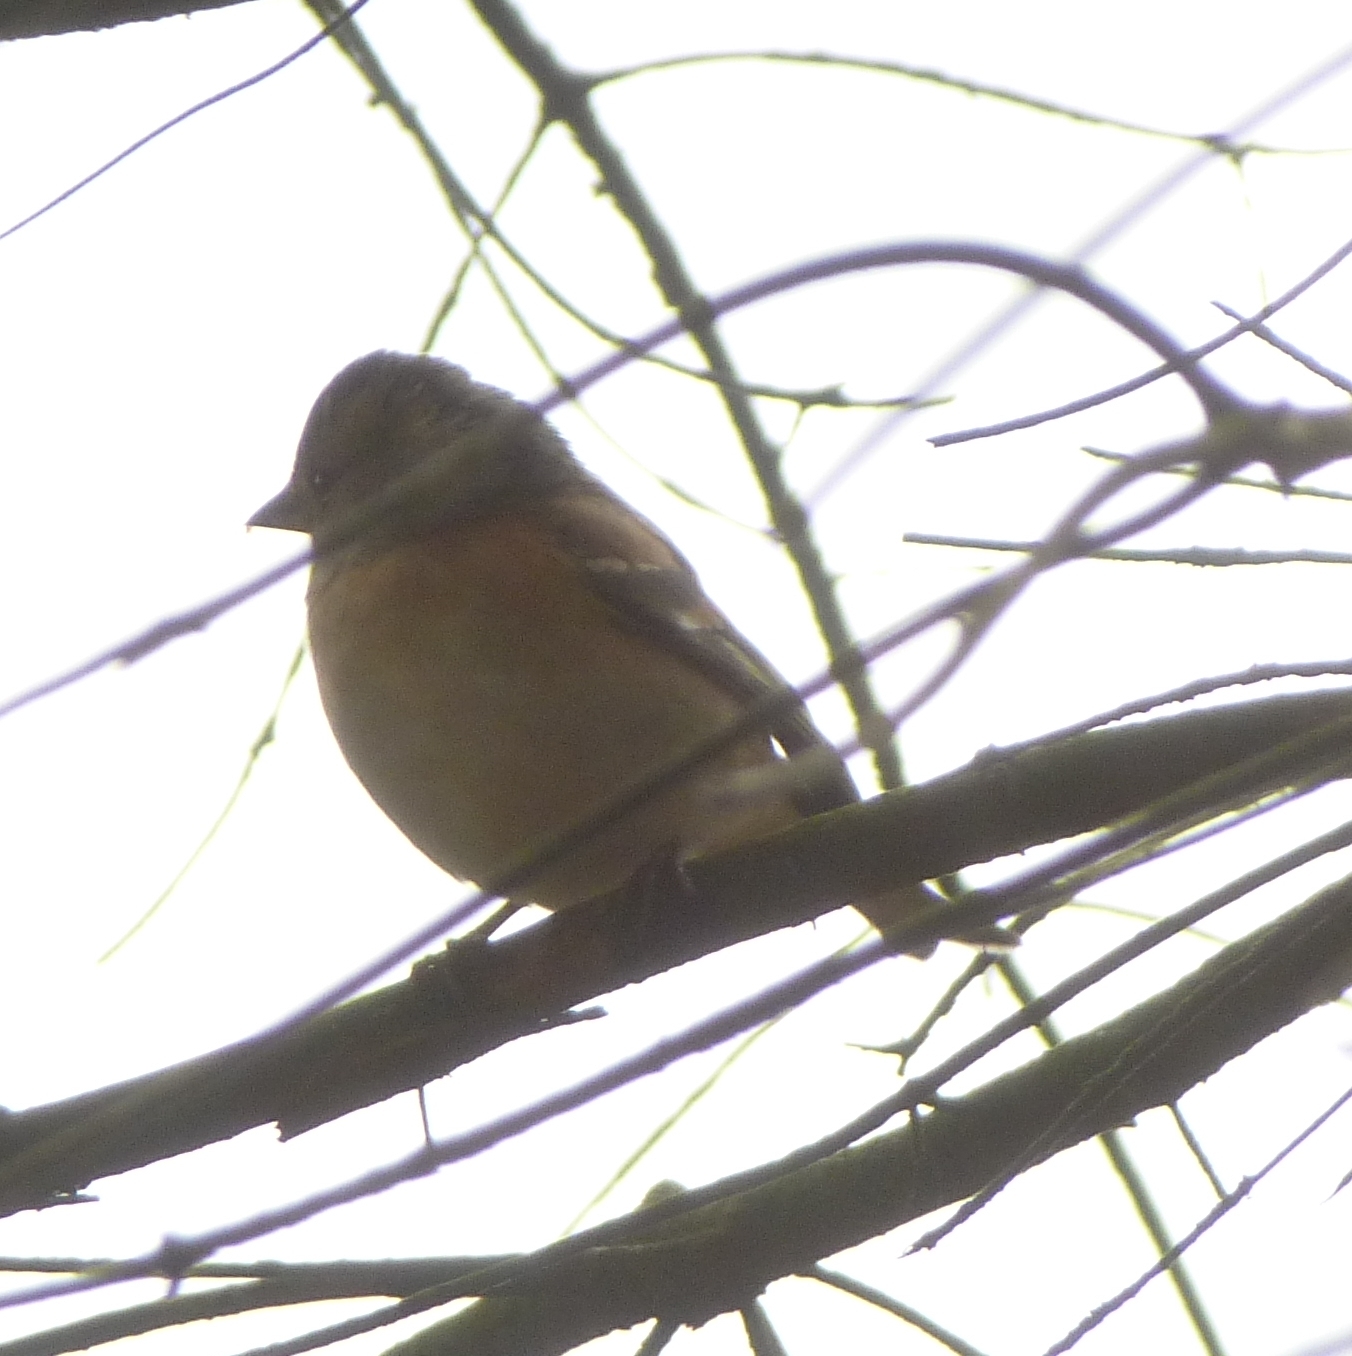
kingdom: Animalia
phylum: Chordata
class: Aves
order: Passeriformes
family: Fringillidae
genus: Fringilla
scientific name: Fringilla coelebs
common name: Common chaffinch
